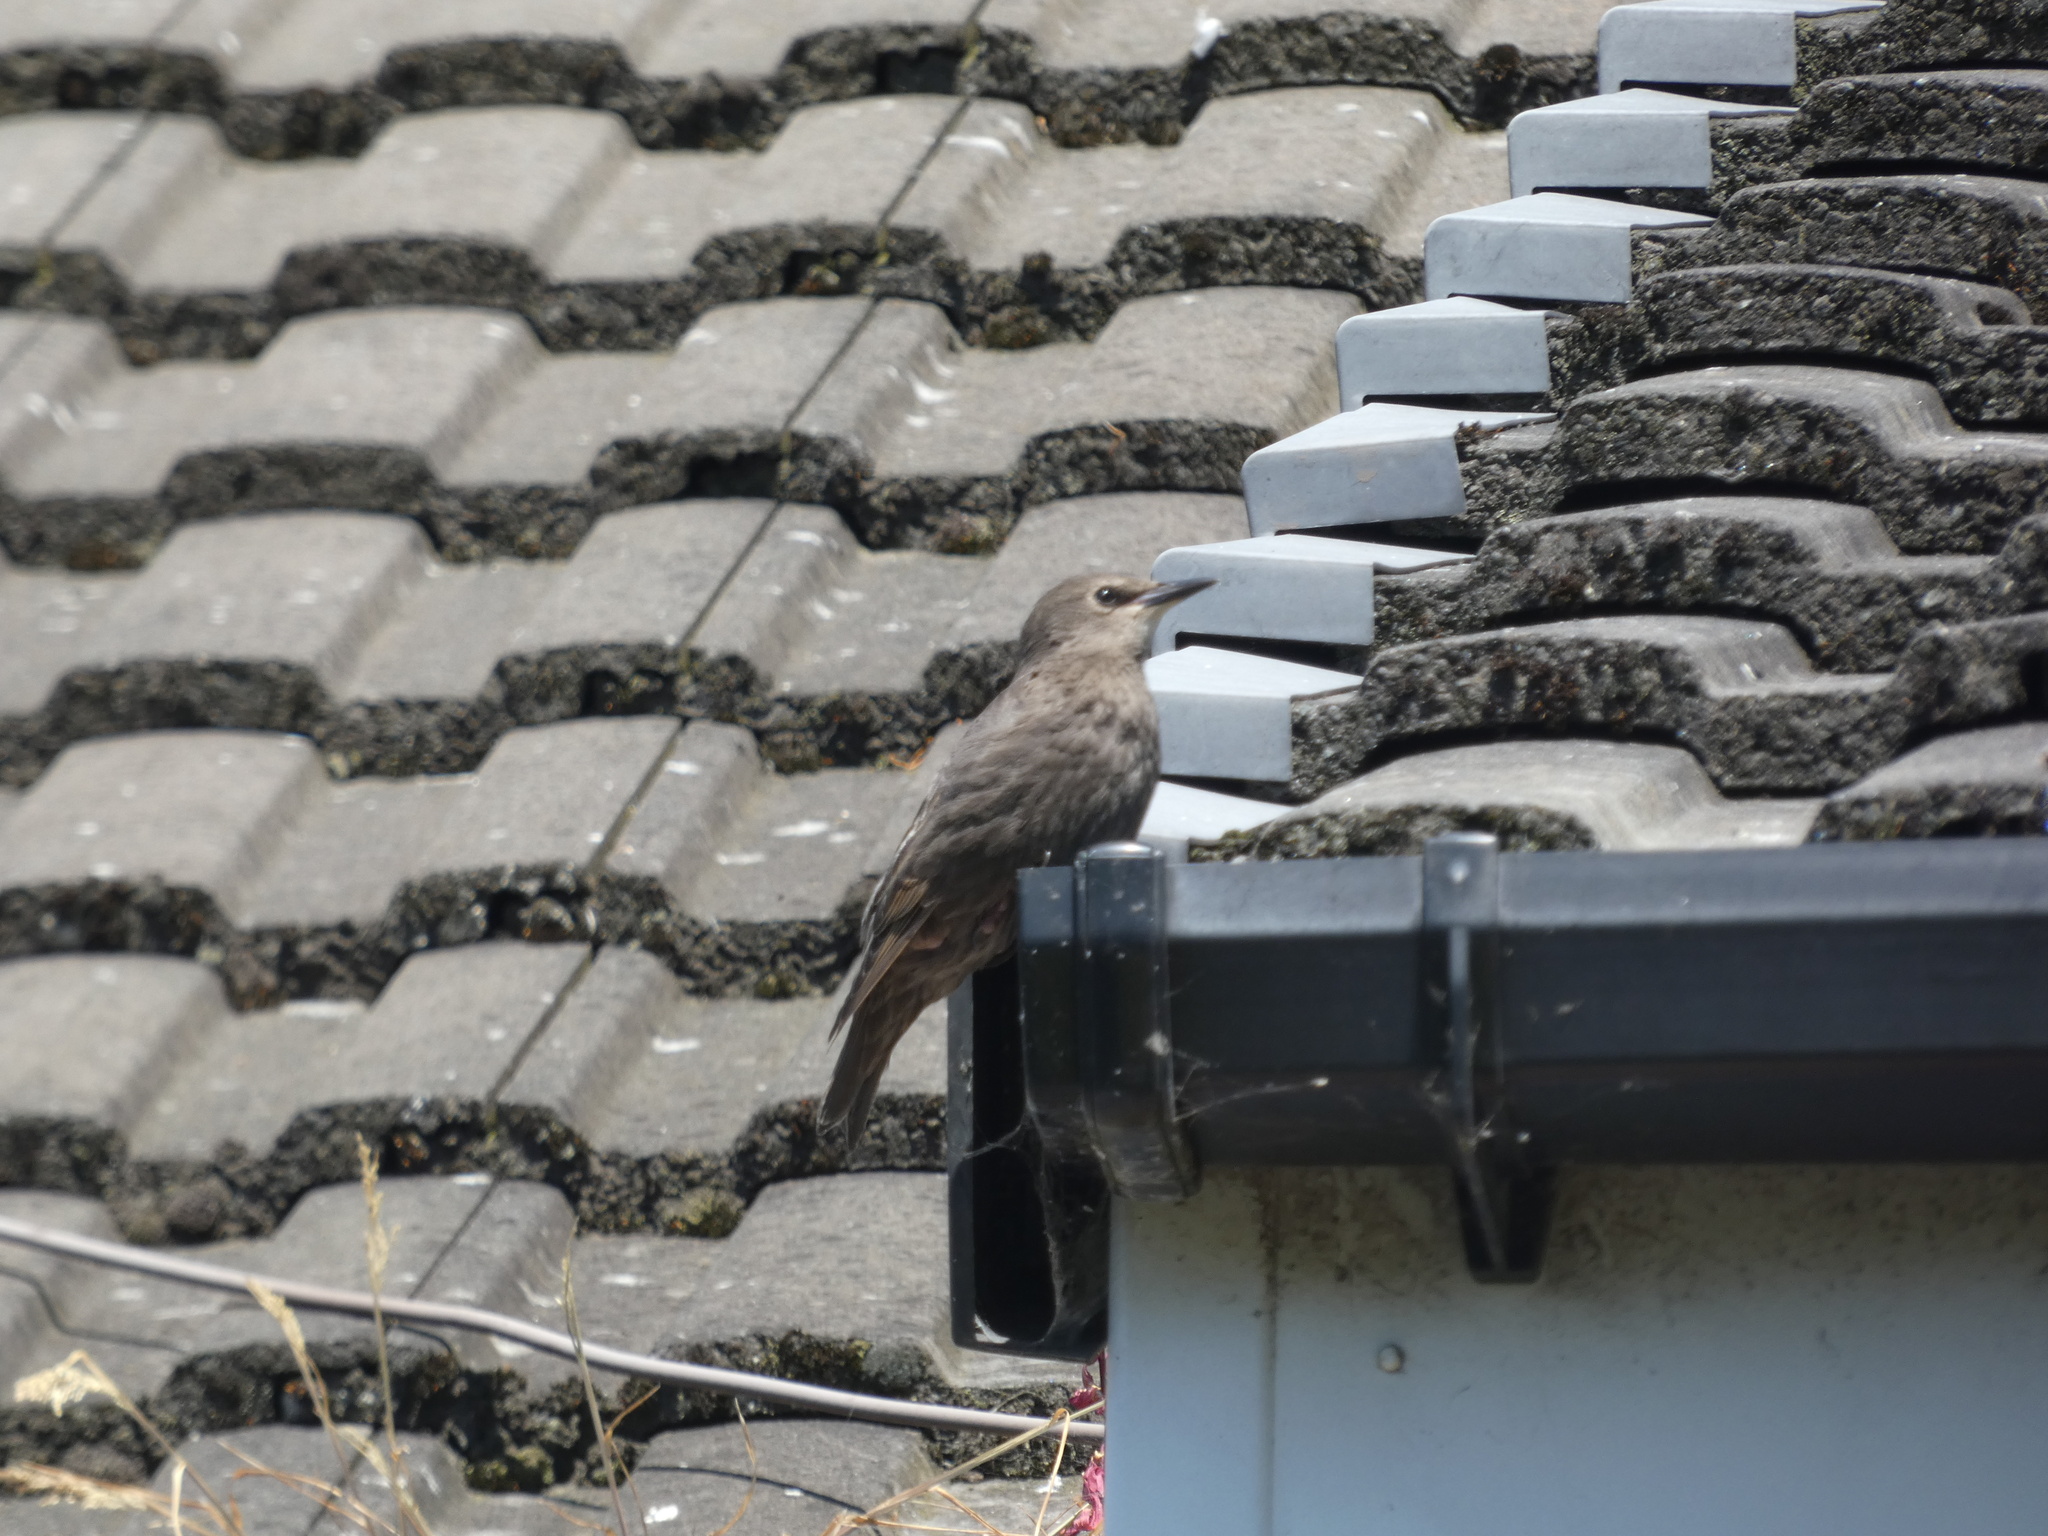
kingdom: Animalia
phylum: Chordata
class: Aves
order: Passeriformes
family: Sturnidae
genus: Sturnus
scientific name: Sturnus vulgaris
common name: Common starling
